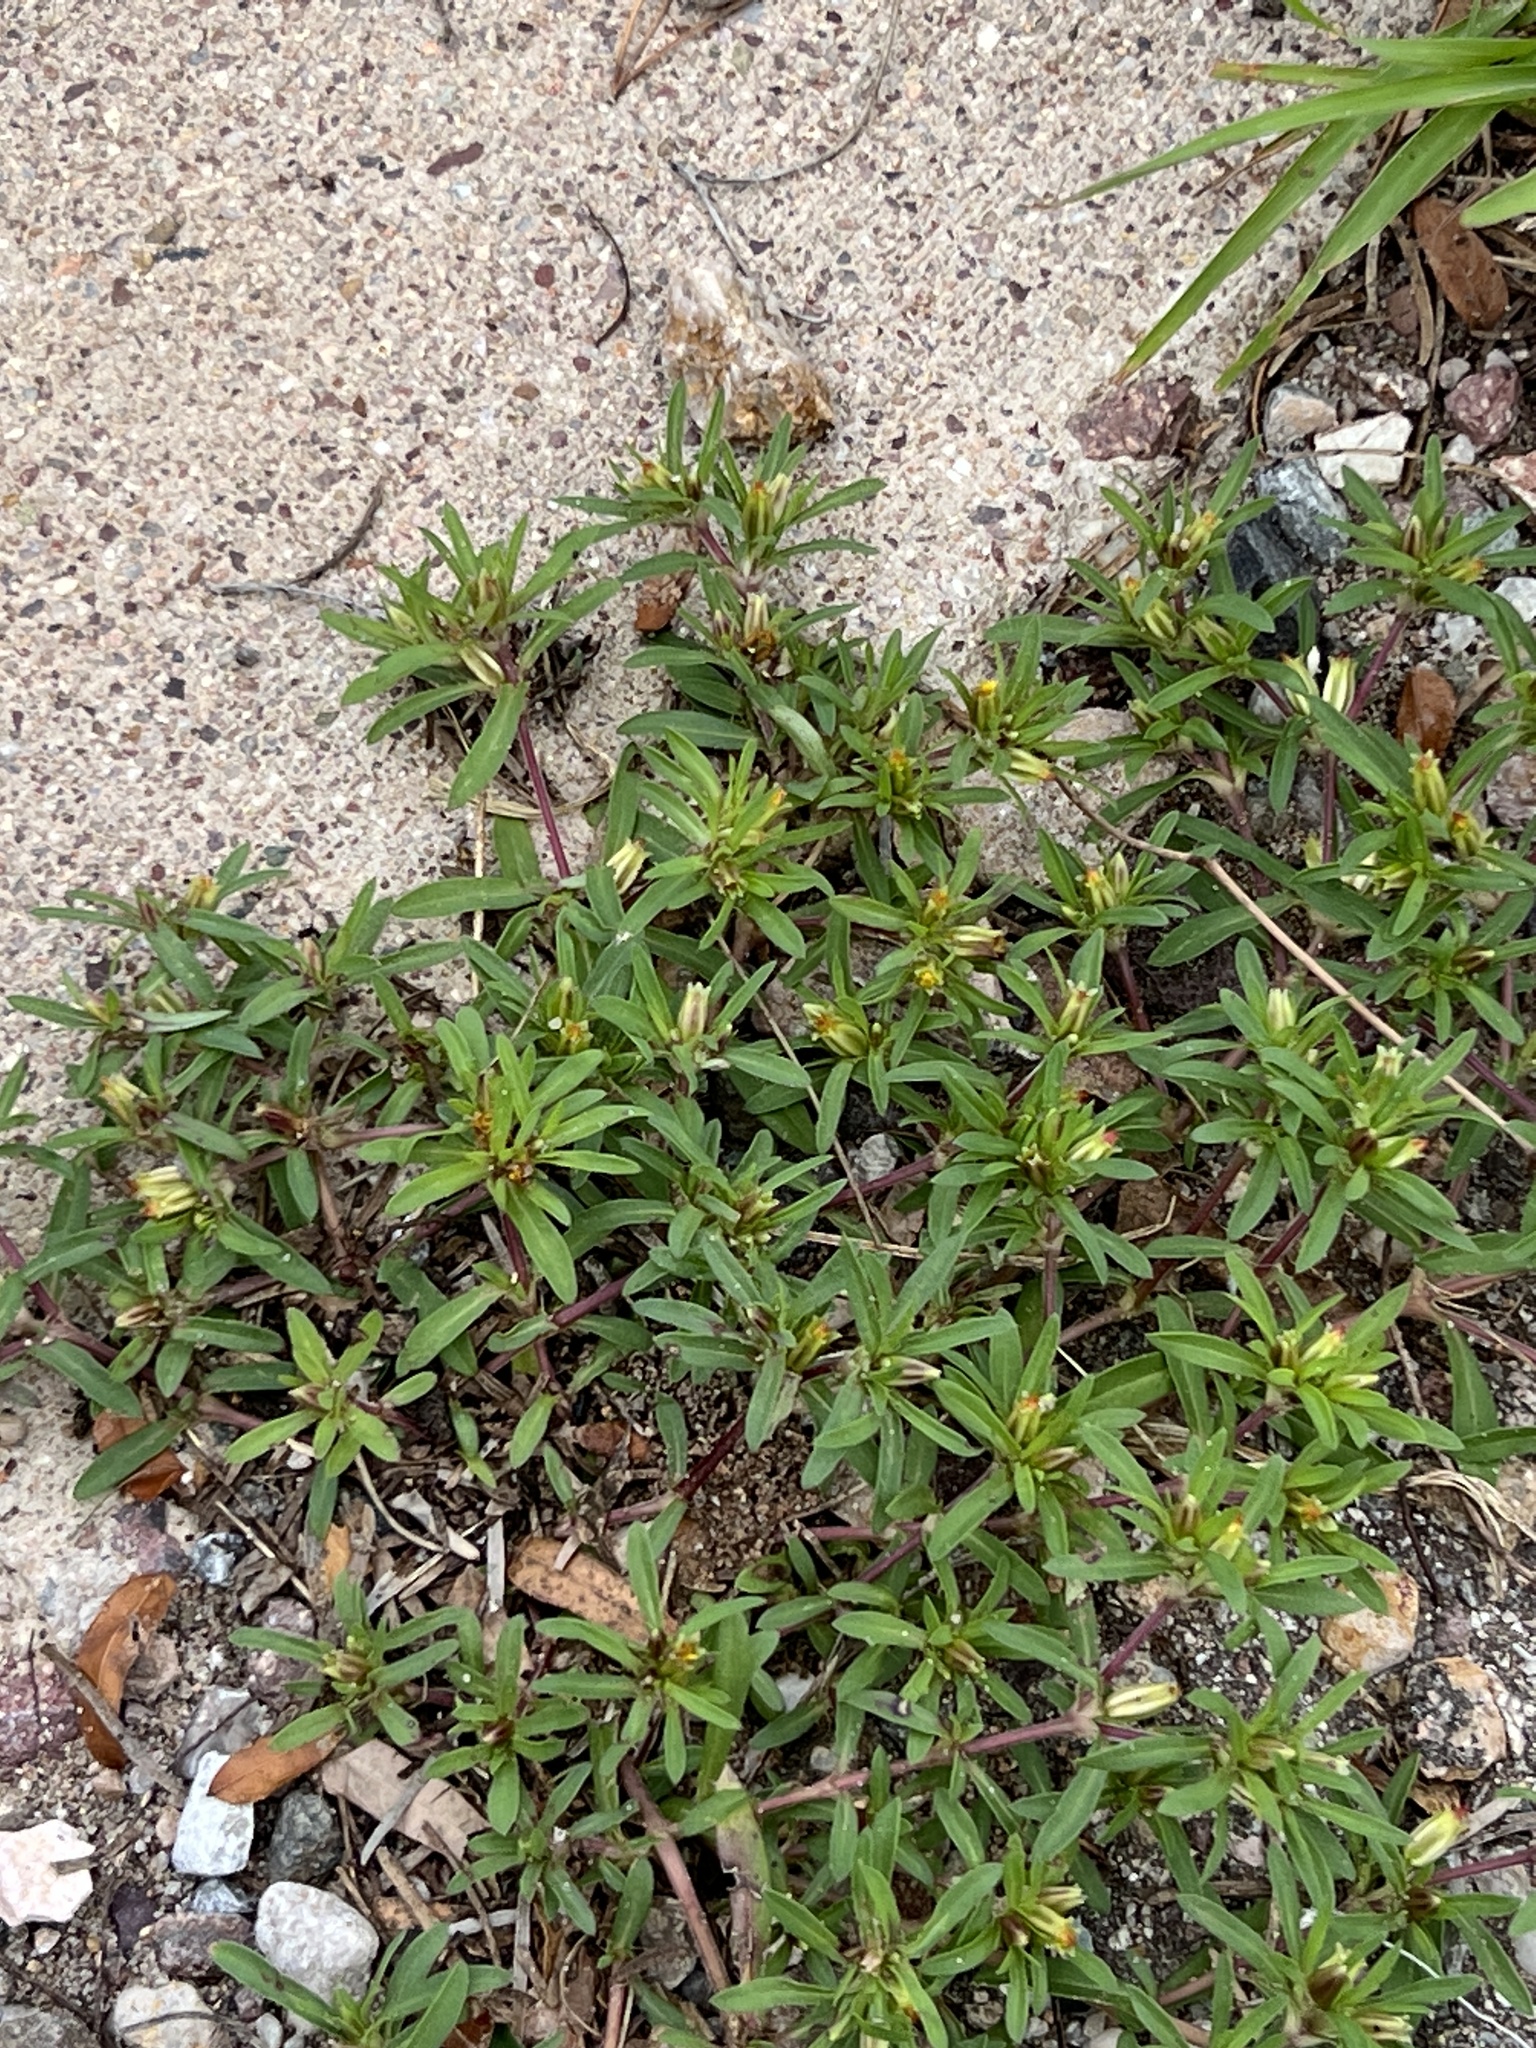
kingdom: Plantae
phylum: Tracheophyta
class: Magnoliopsida
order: Asterales
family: Asteraceae
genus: Pectis
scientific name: Pectis prostrata
